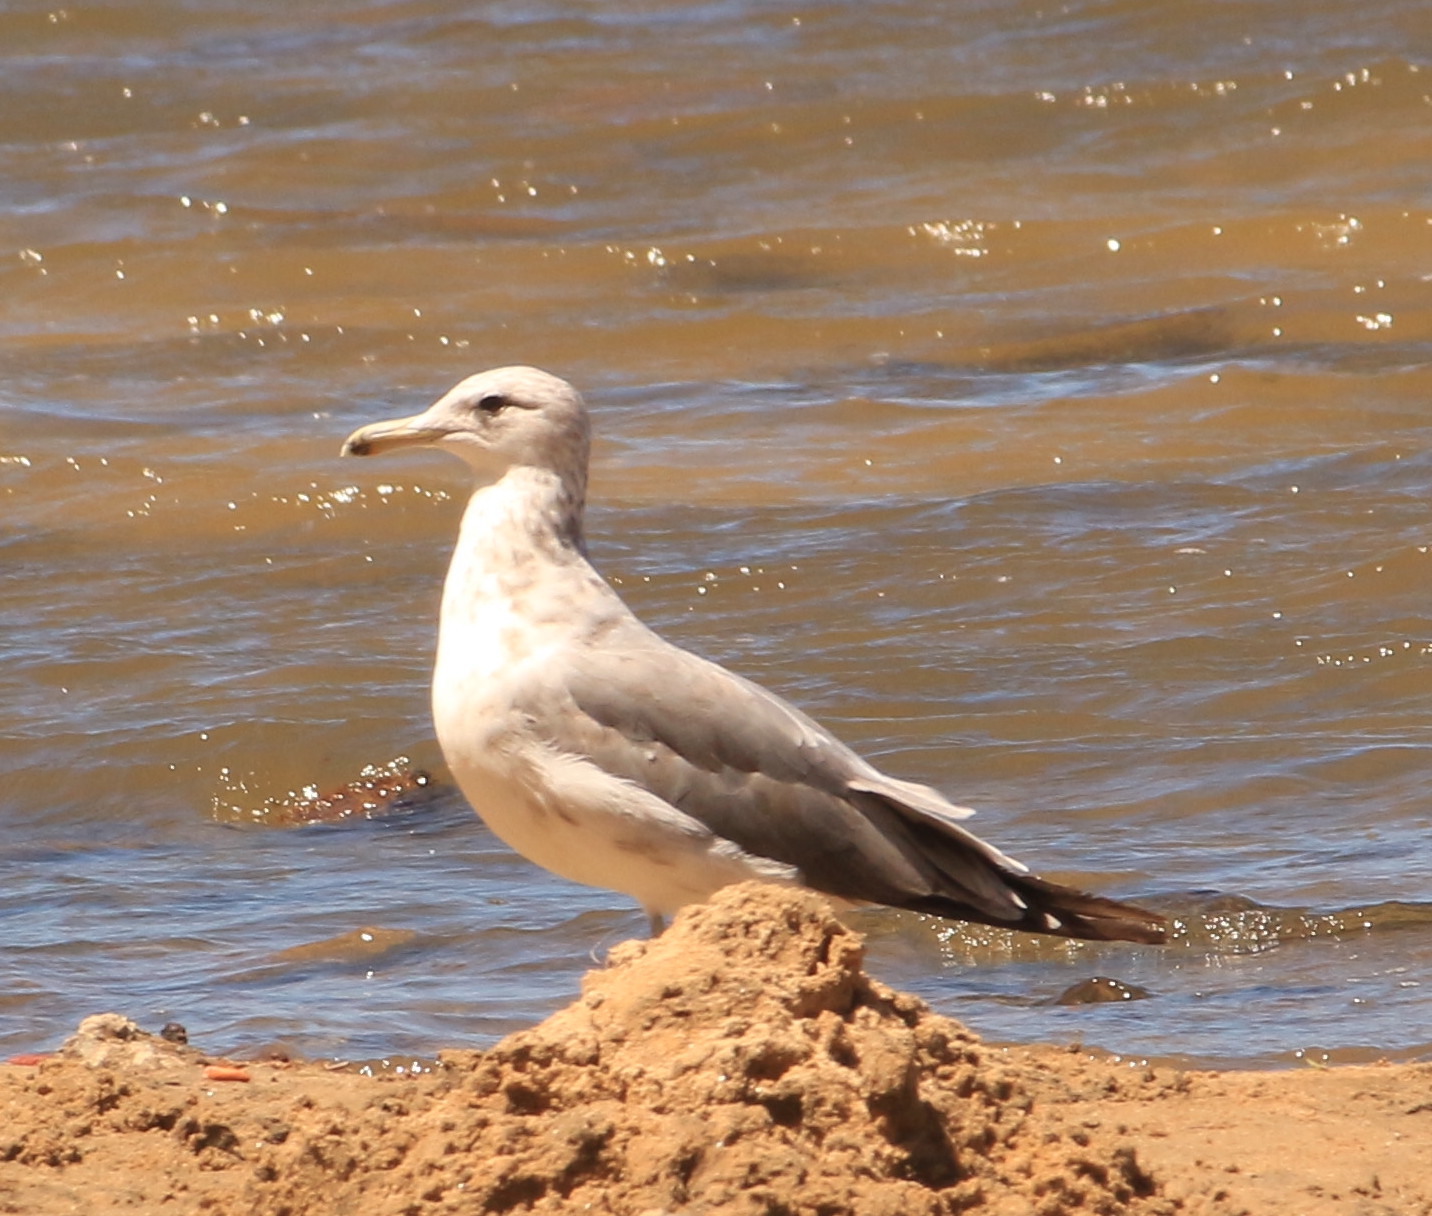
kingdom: Animalia
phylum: Chordata
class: Aves
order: Charadriiformes
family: Laridae
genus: Larus
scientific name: Larus californicus
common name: California gull
